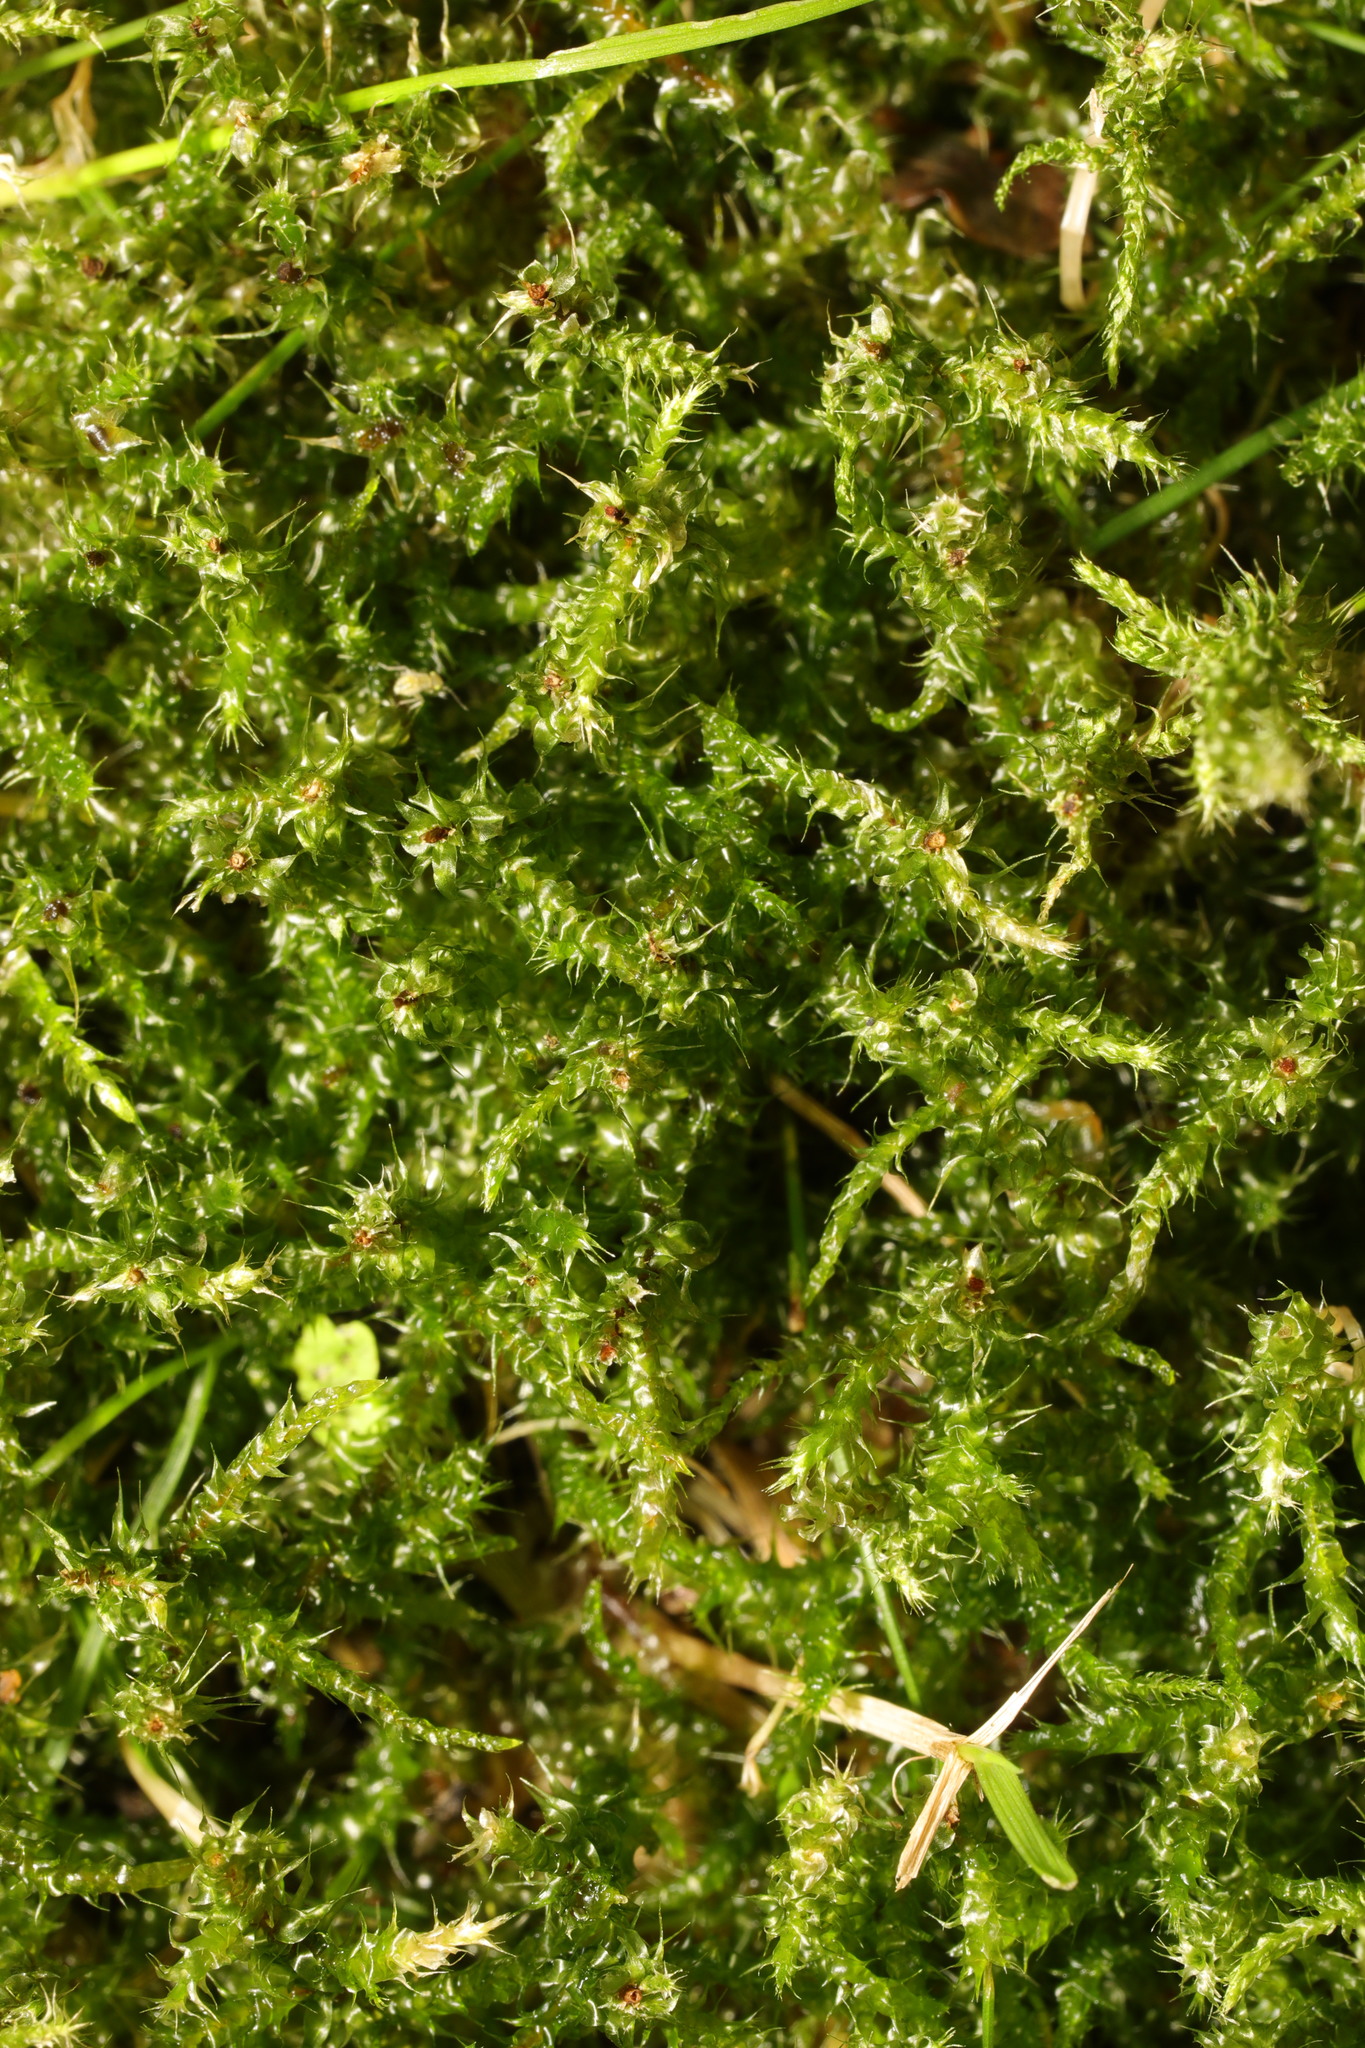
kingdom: Plantae
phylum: Bryophyta
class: Bryopsida
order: Hypnales
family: Hylocomiaceae
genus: Rhytidiadelphus
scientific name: Rhytidiadelphus squarrosus
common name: Springy turf-moss
